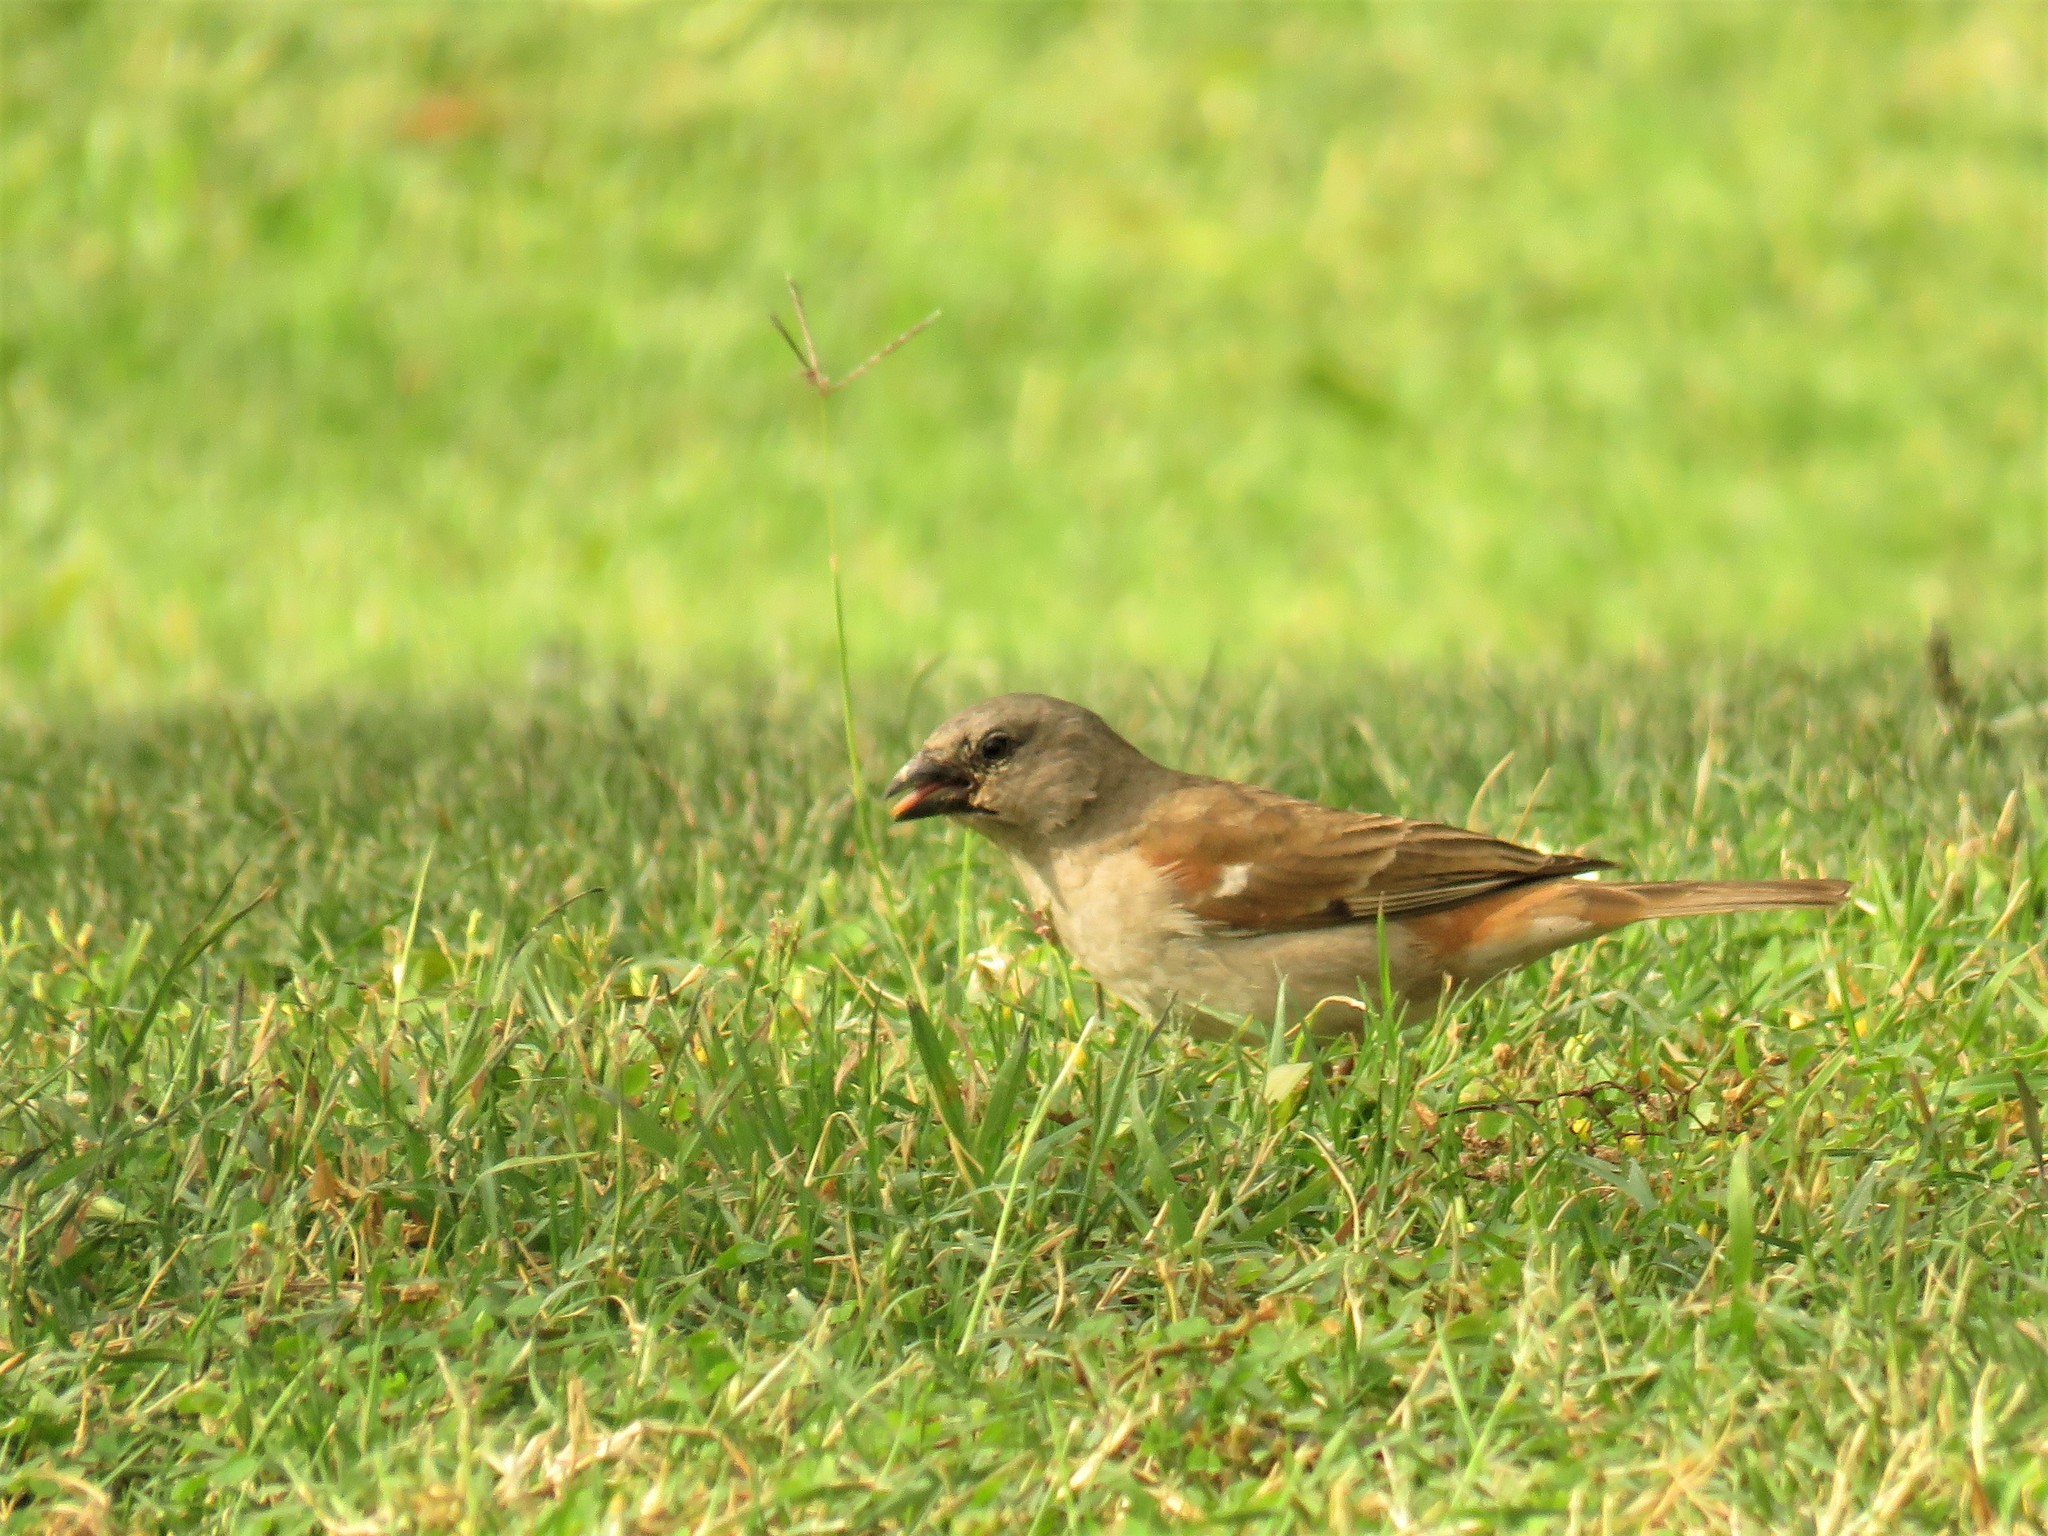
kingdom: Animalia
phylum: Chordata
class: Aves
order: Passeriformes
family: Passeridae
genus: Passer
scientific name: Passer diffusus
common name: Southern grey-headed sparrow
